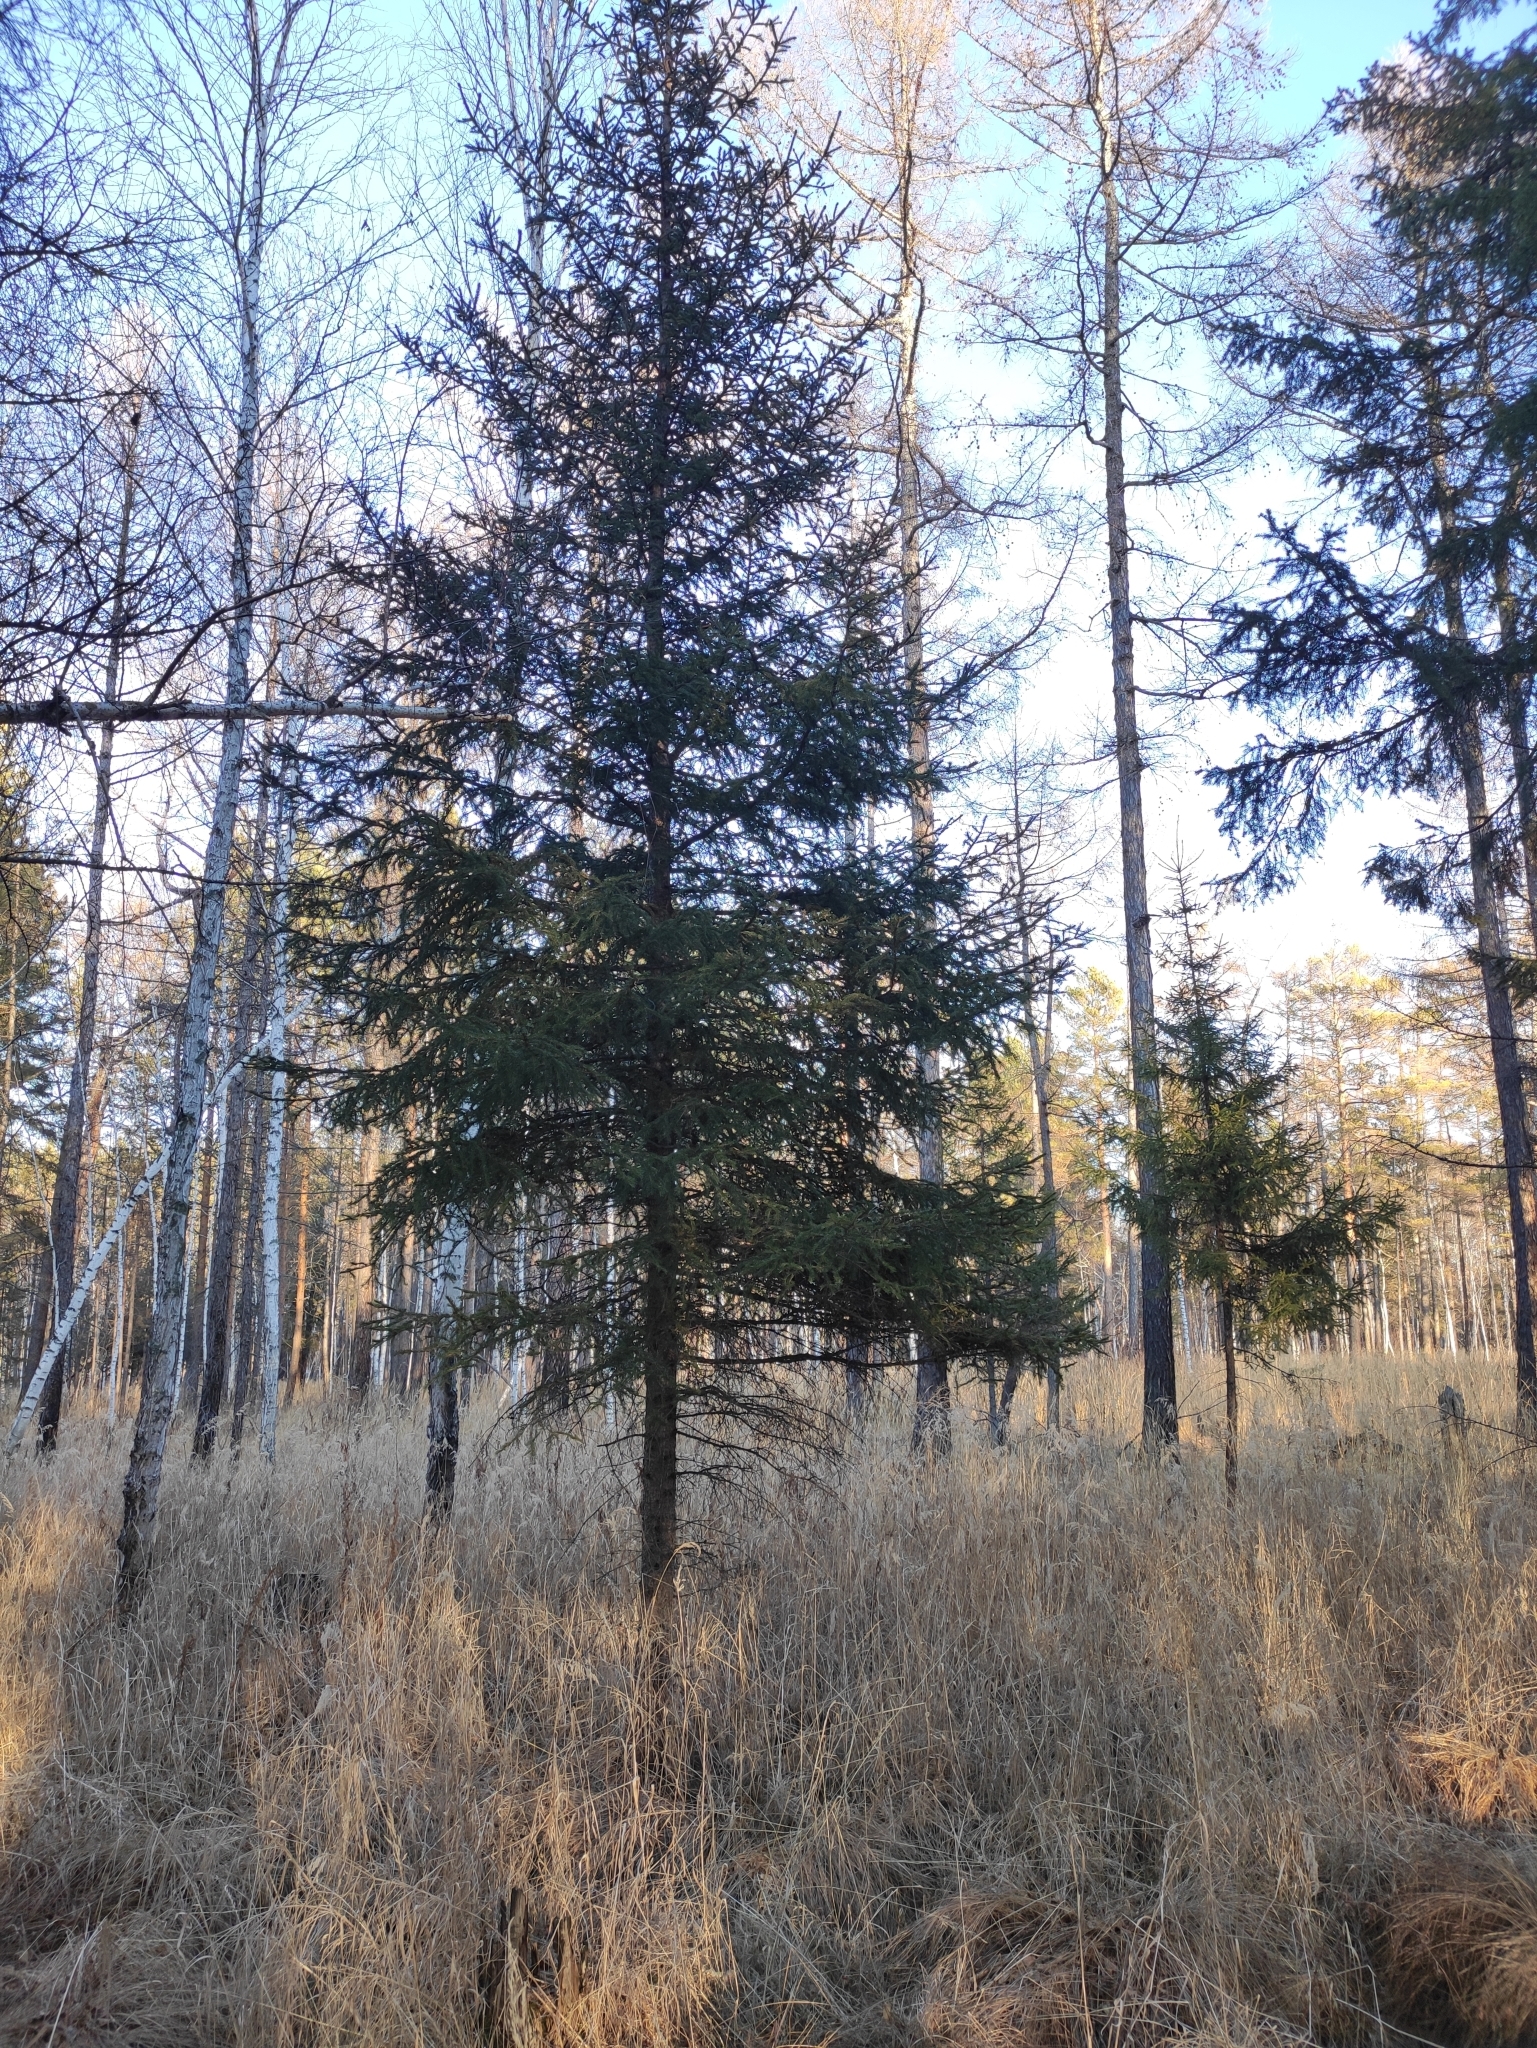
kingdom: Plantae
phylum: Tracheophyta
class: Pinopsida
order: Pinales
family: Pinaceae
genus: Picea
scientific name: Picea obovata
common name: Siberian spruce
